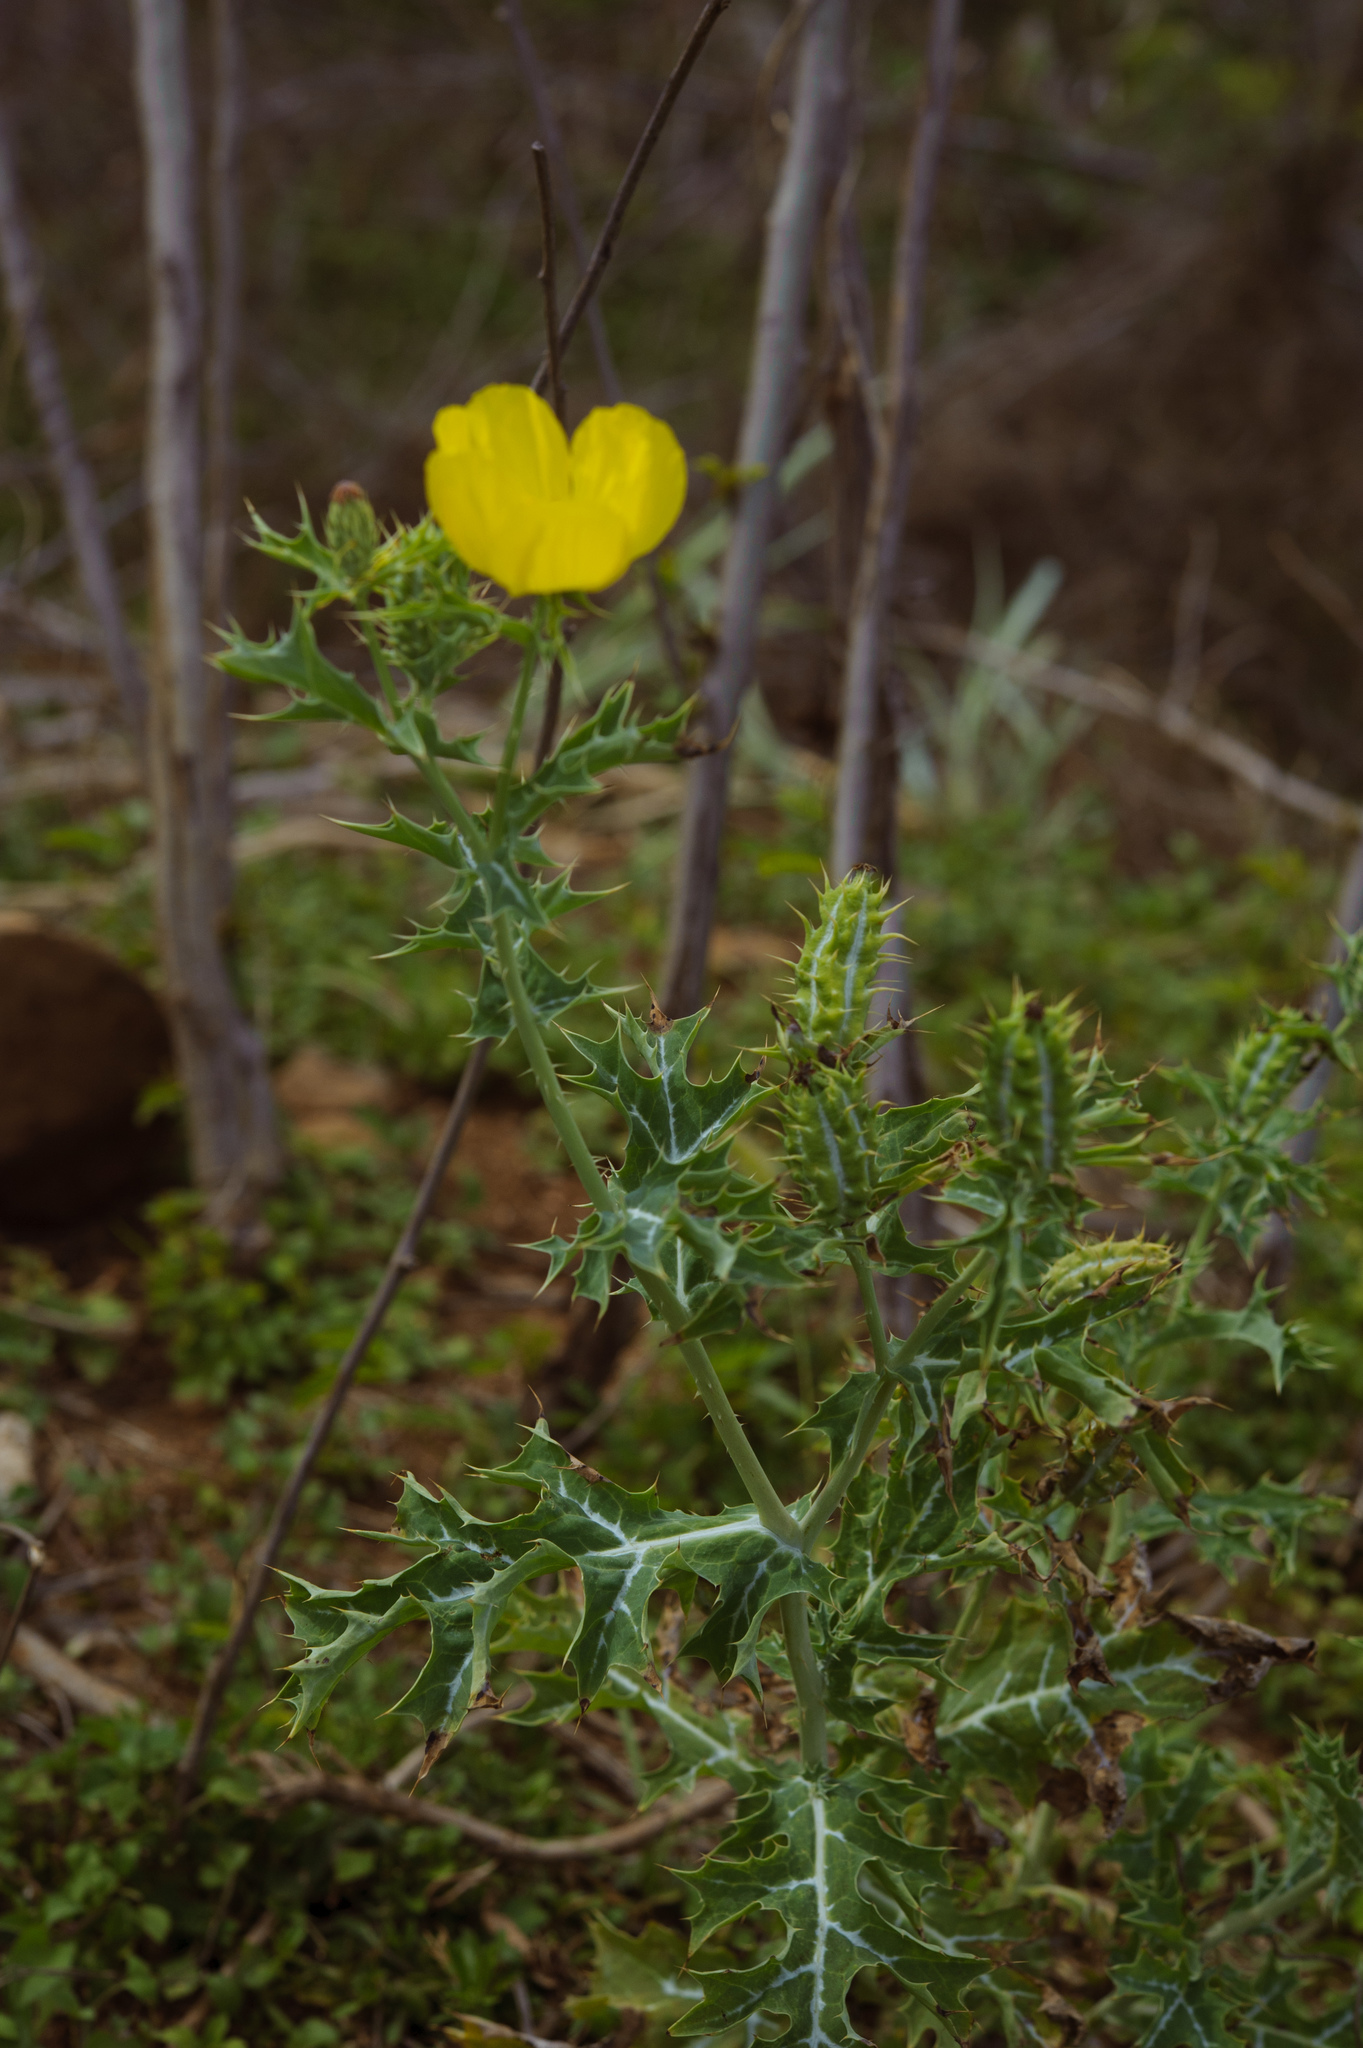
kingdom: Plantae
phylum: Tracheophyta
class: Magnoliopsida
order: Ranunculales
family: Papaveraceae
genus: Argemone
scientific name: Argemone mexicana
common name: Mexican poppy
